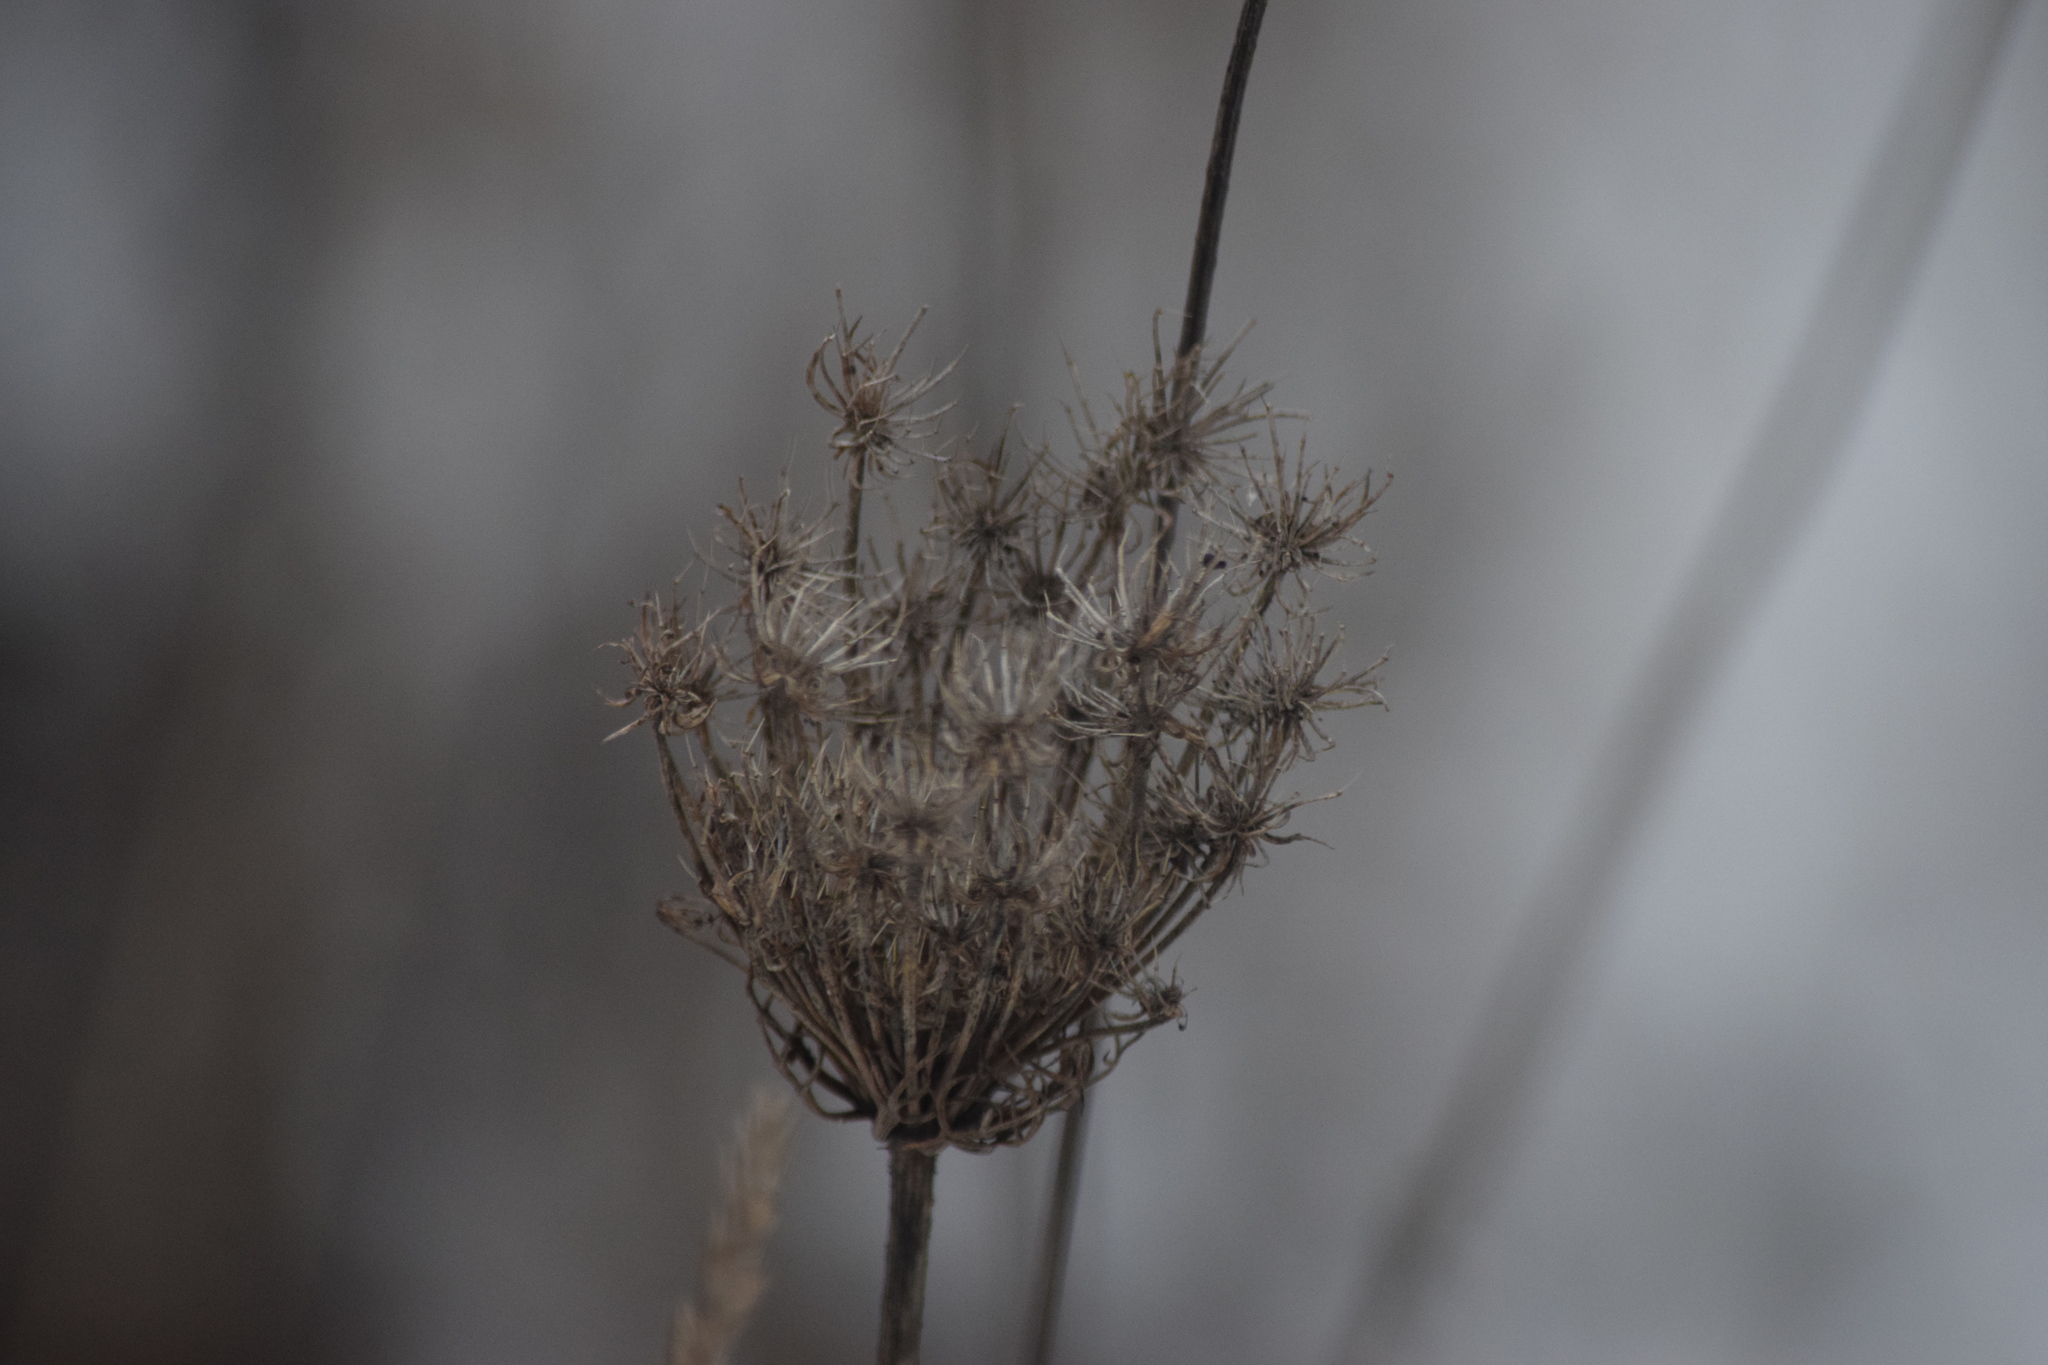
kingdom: Plantae
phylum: Tracheophyta
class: Magnoliopsida
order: Apiales
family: Apiaceae
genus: Daucus
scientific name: Daucus carota
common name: Wild carrot
